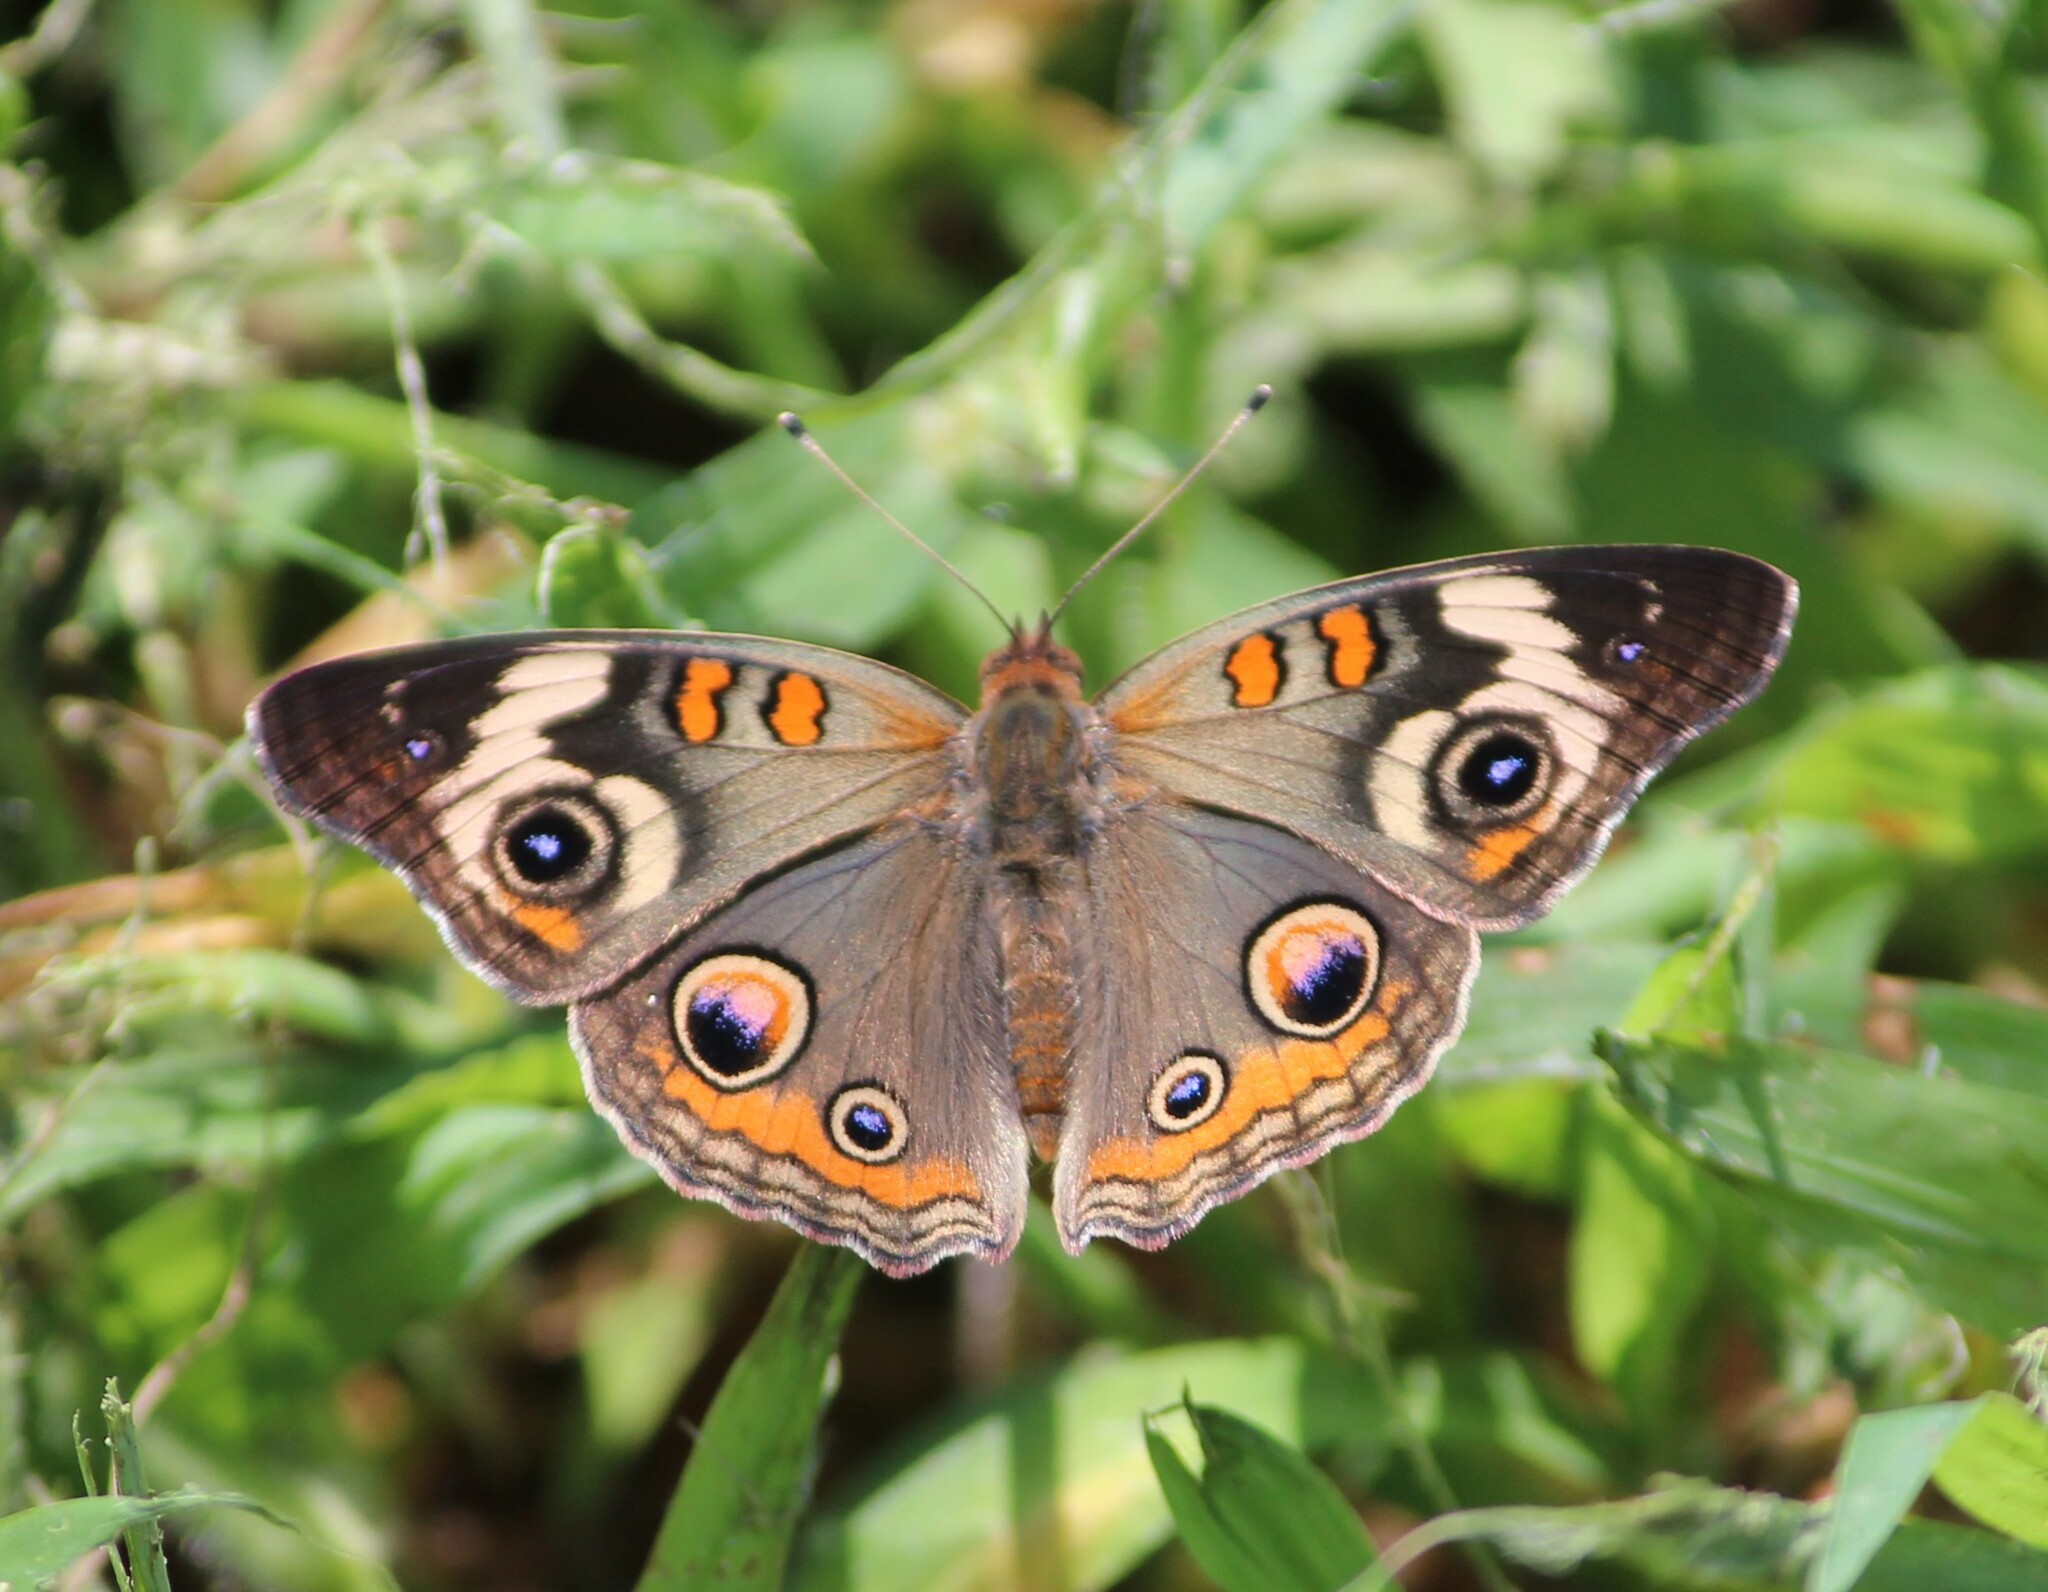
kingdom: Animalia
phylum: Arthropoda
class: Insecta
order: Lepidoptera
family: Nymphalidae
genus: Junonia
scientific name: Junonia coenia
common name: Common buckeye
